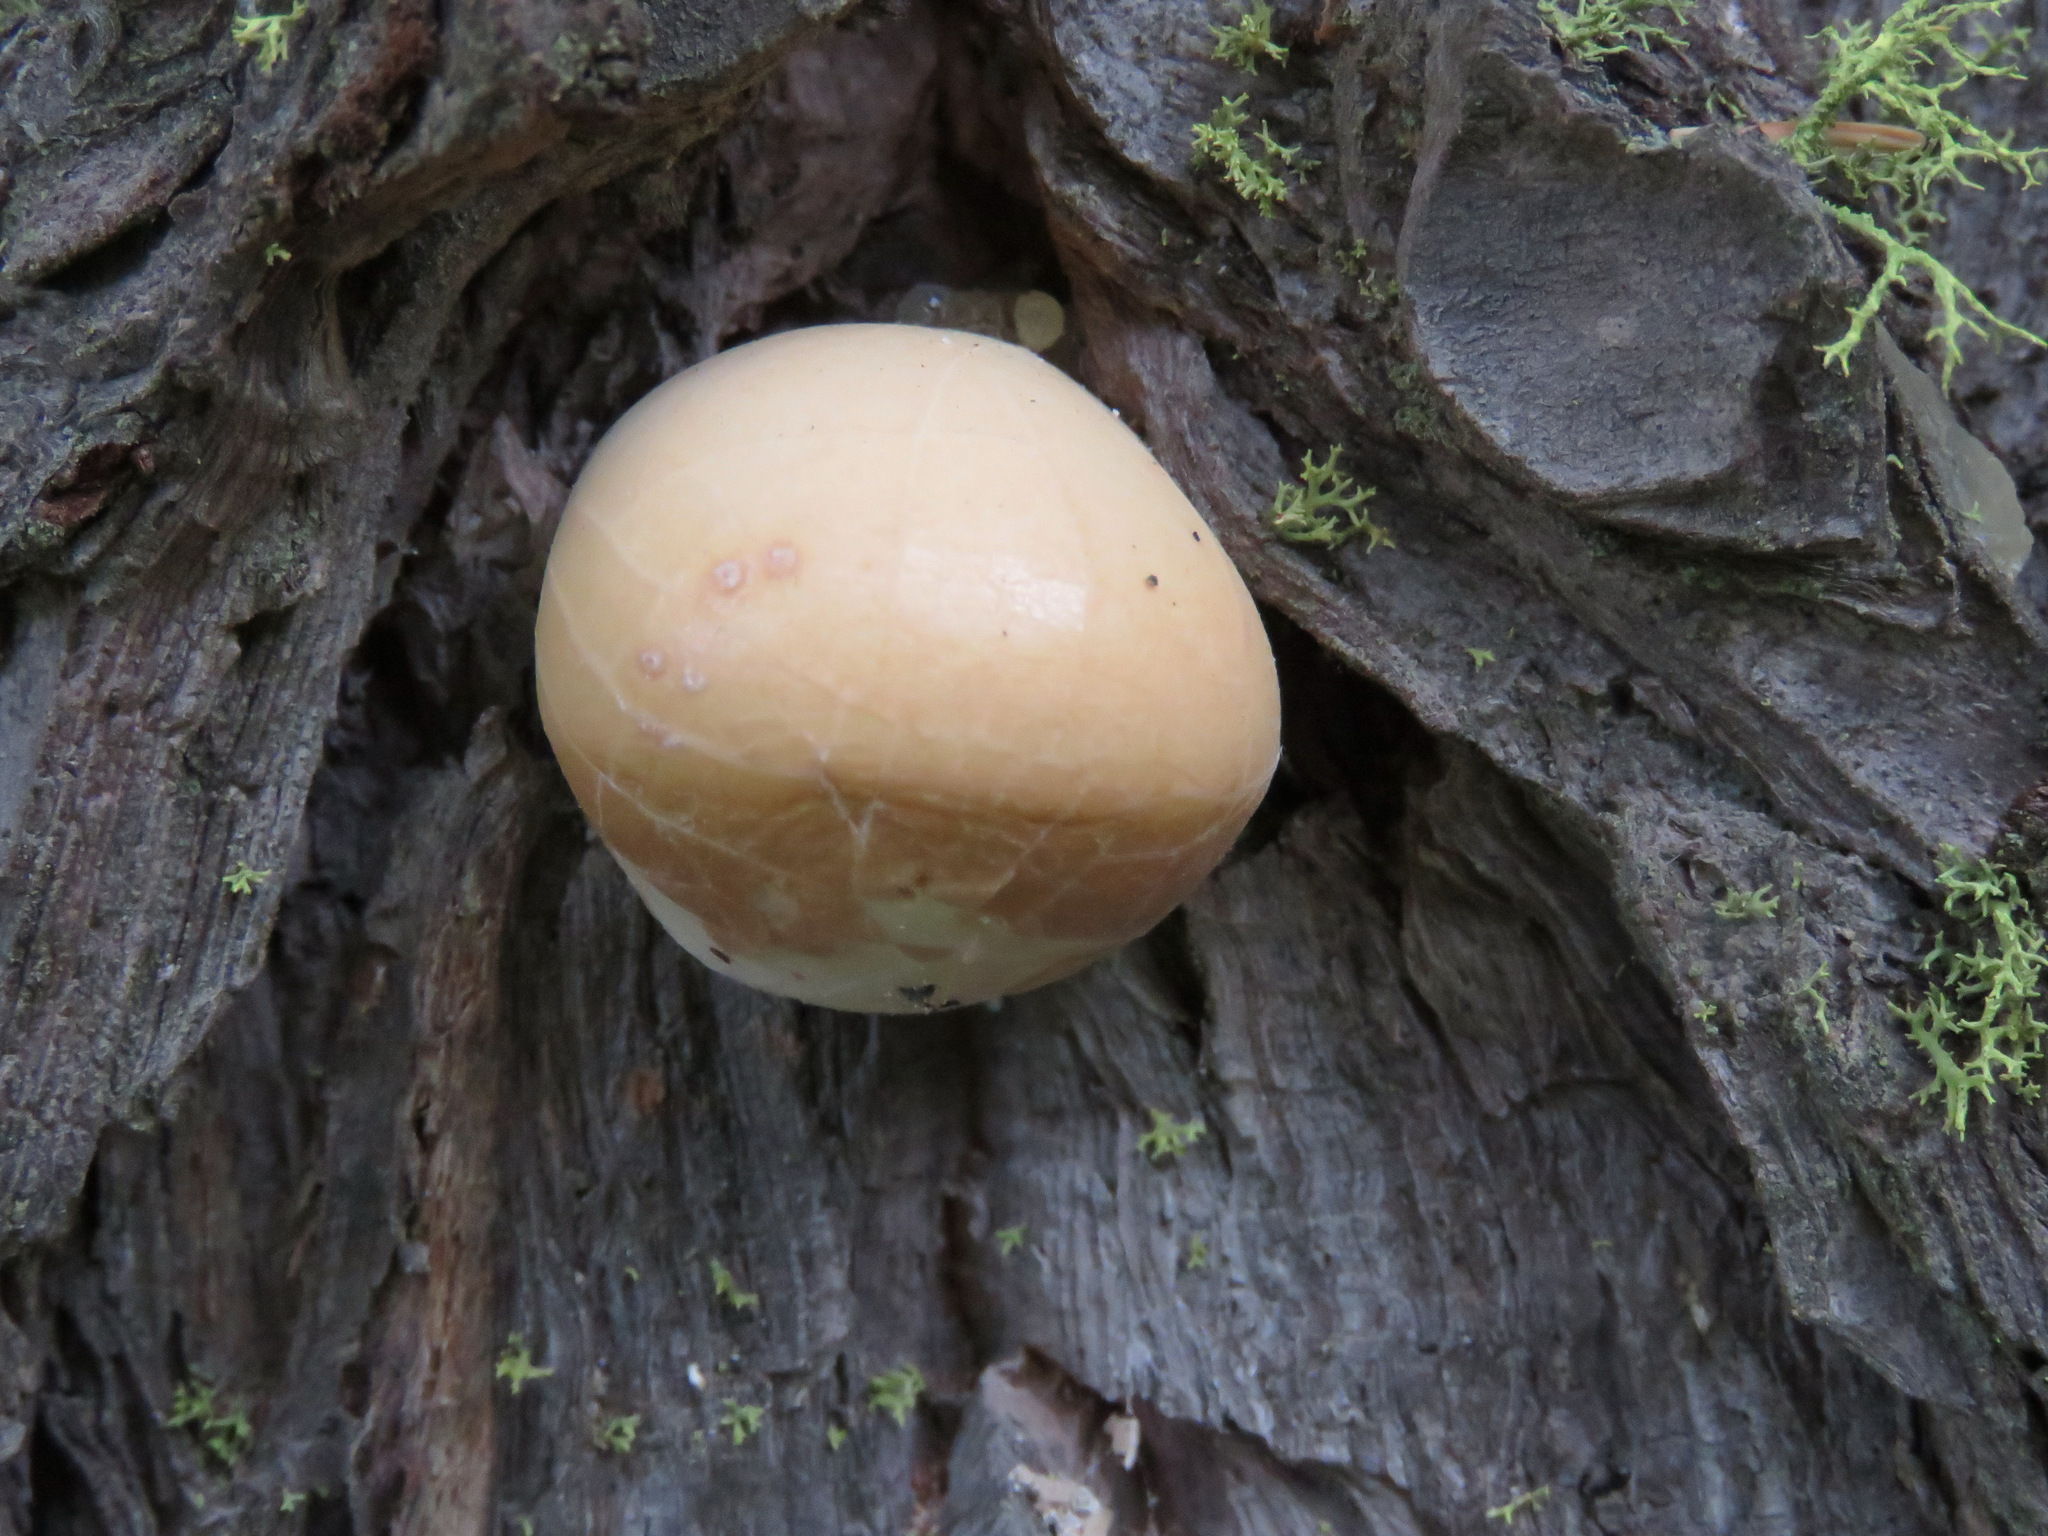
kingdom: Fungi
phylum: Basidiomycota
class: Agaricomycetes
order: Polyporales
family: Polyporaceae
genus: Cryptoporus
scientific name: Cryptoporus volvatus
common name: Veiled polypore
